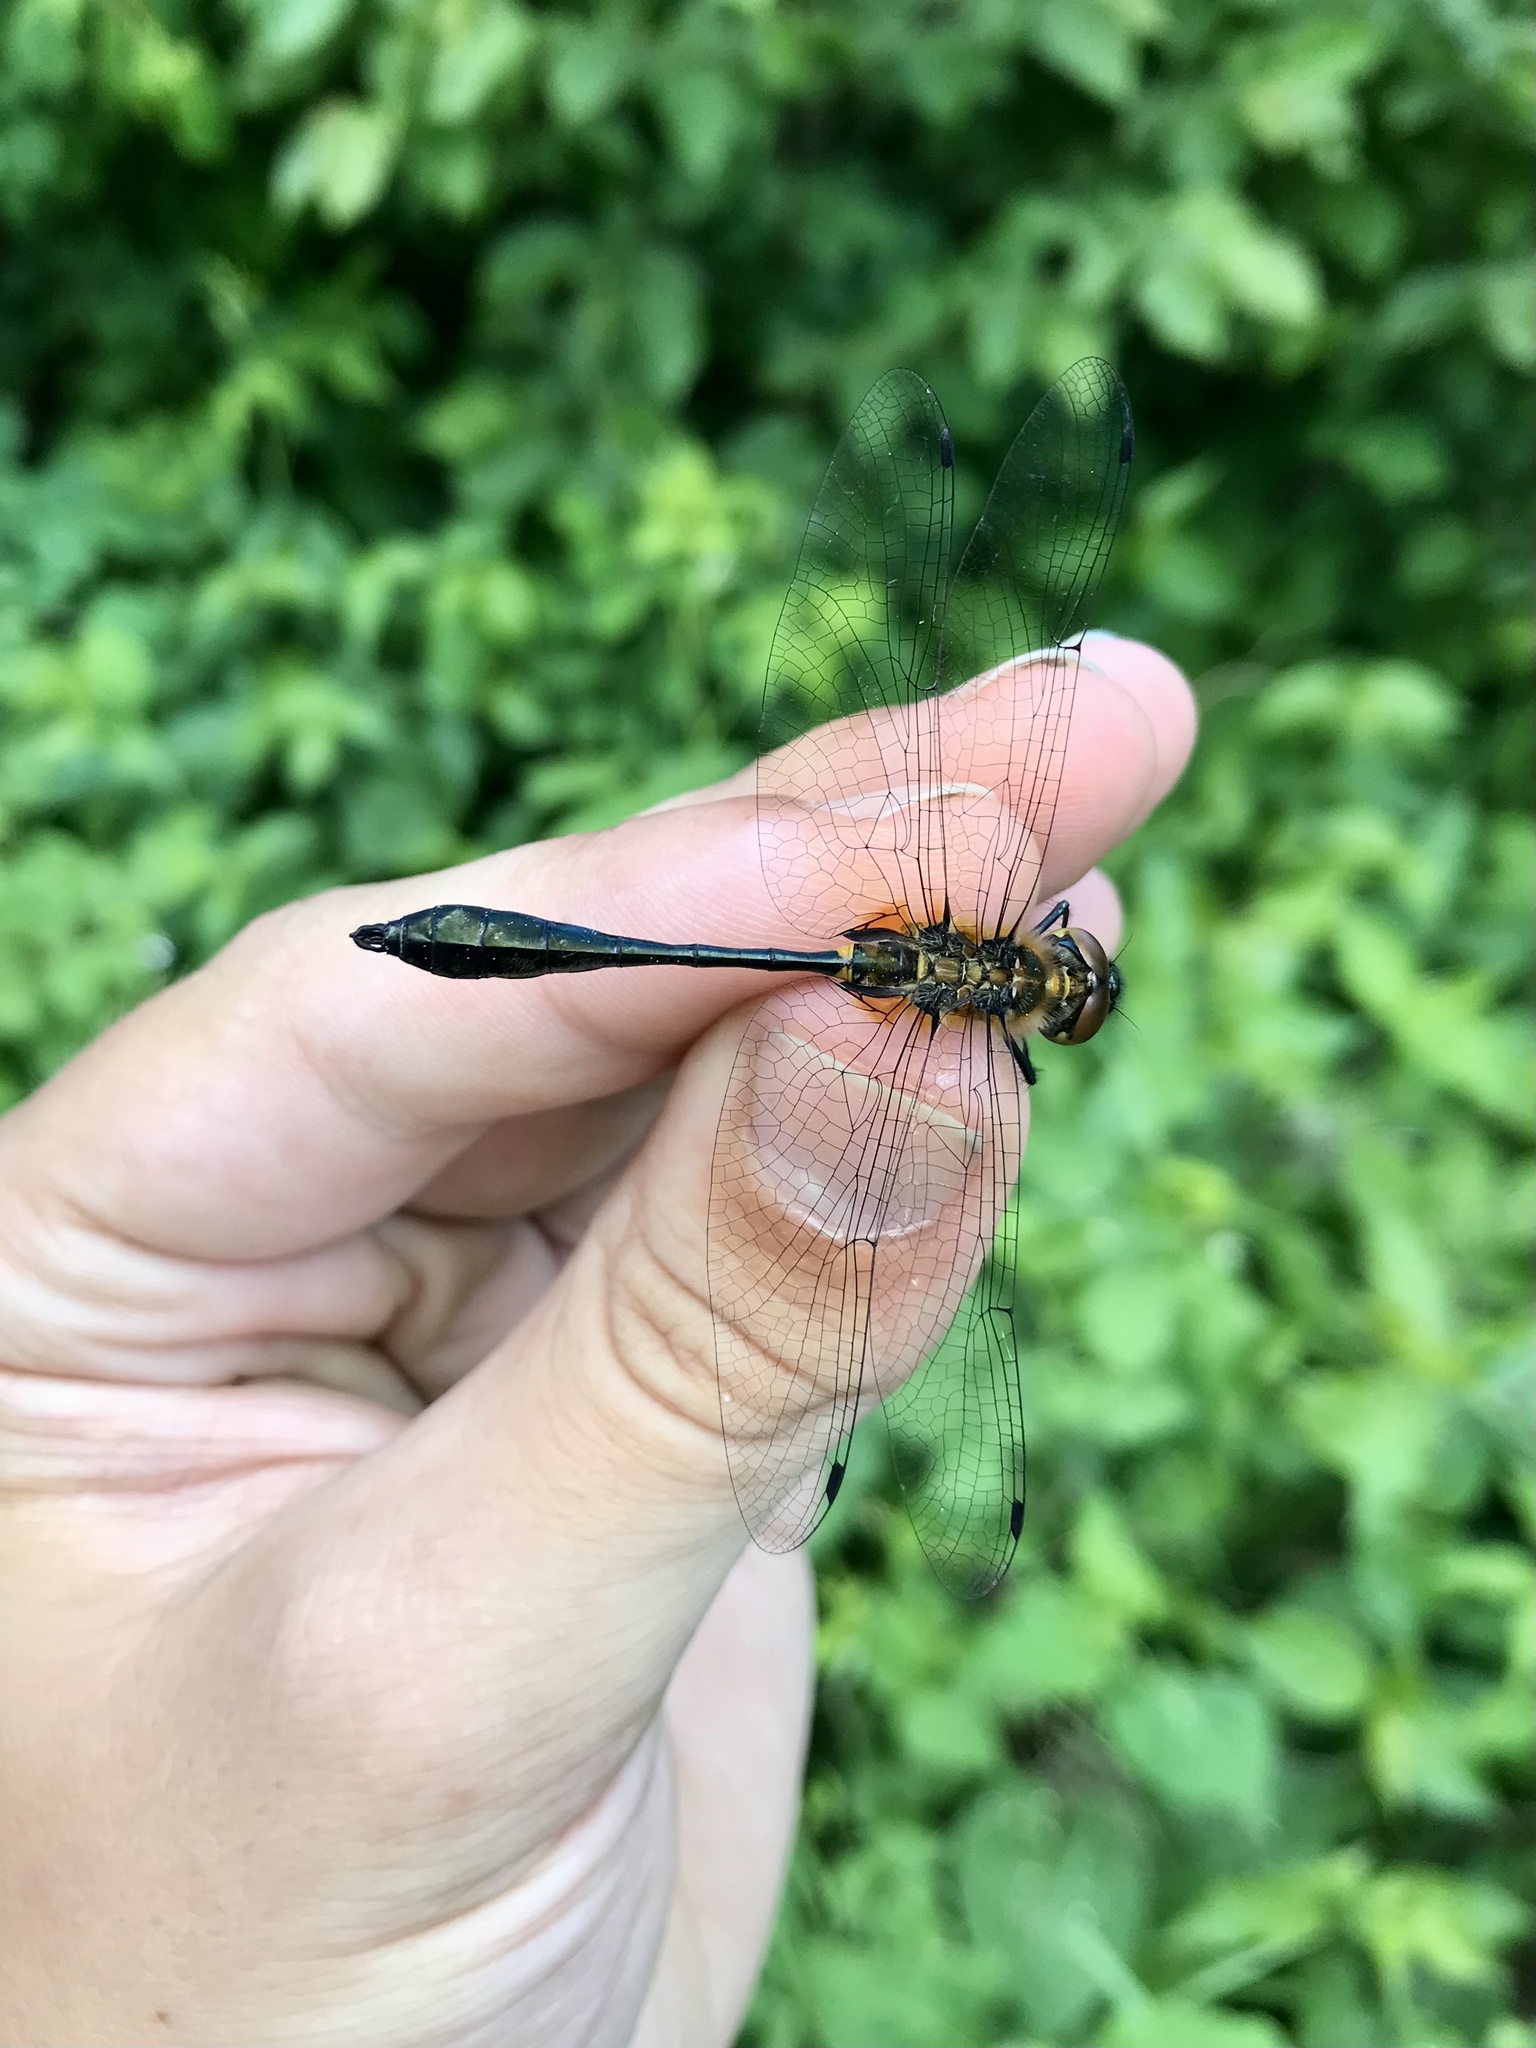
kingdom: Animalia
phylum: Arthropoda
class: Insecta
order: Odonata
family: Corduliidae
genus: Dorocordulia
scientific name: Dorocordulia libera
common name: Racket-tailed emerald
